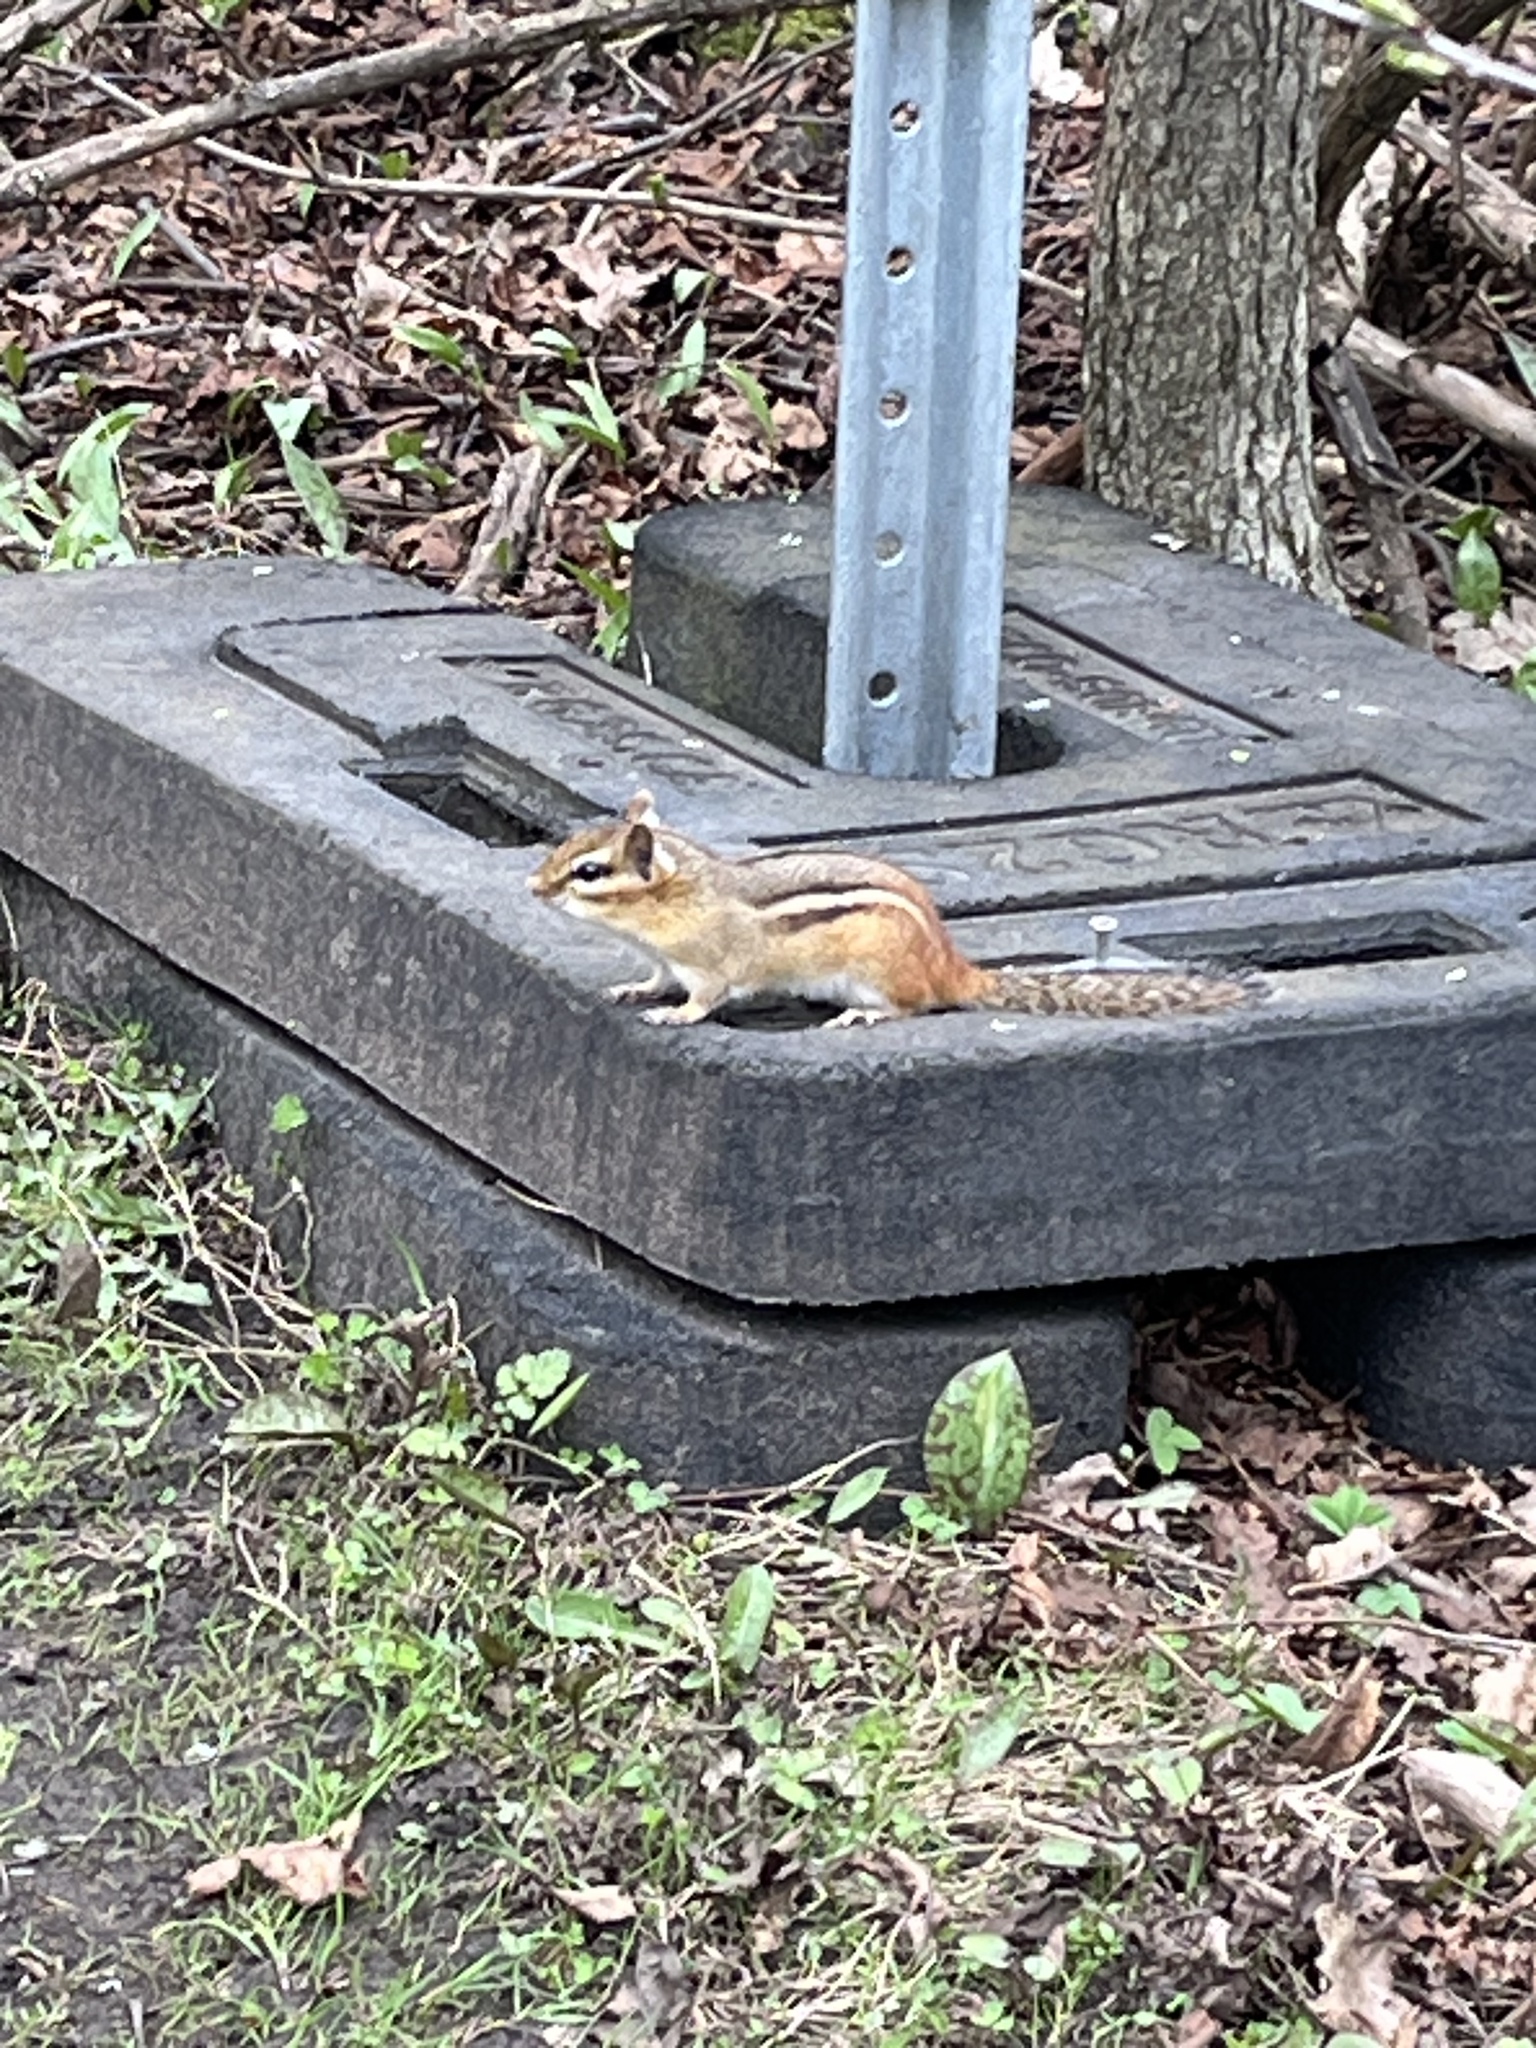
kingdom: Animalia
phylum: Chordata
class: Mammalia
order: Rodentia
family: Sciuridae
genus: Tamias
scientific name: Tamias striatus
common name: Eastern chipmunk
